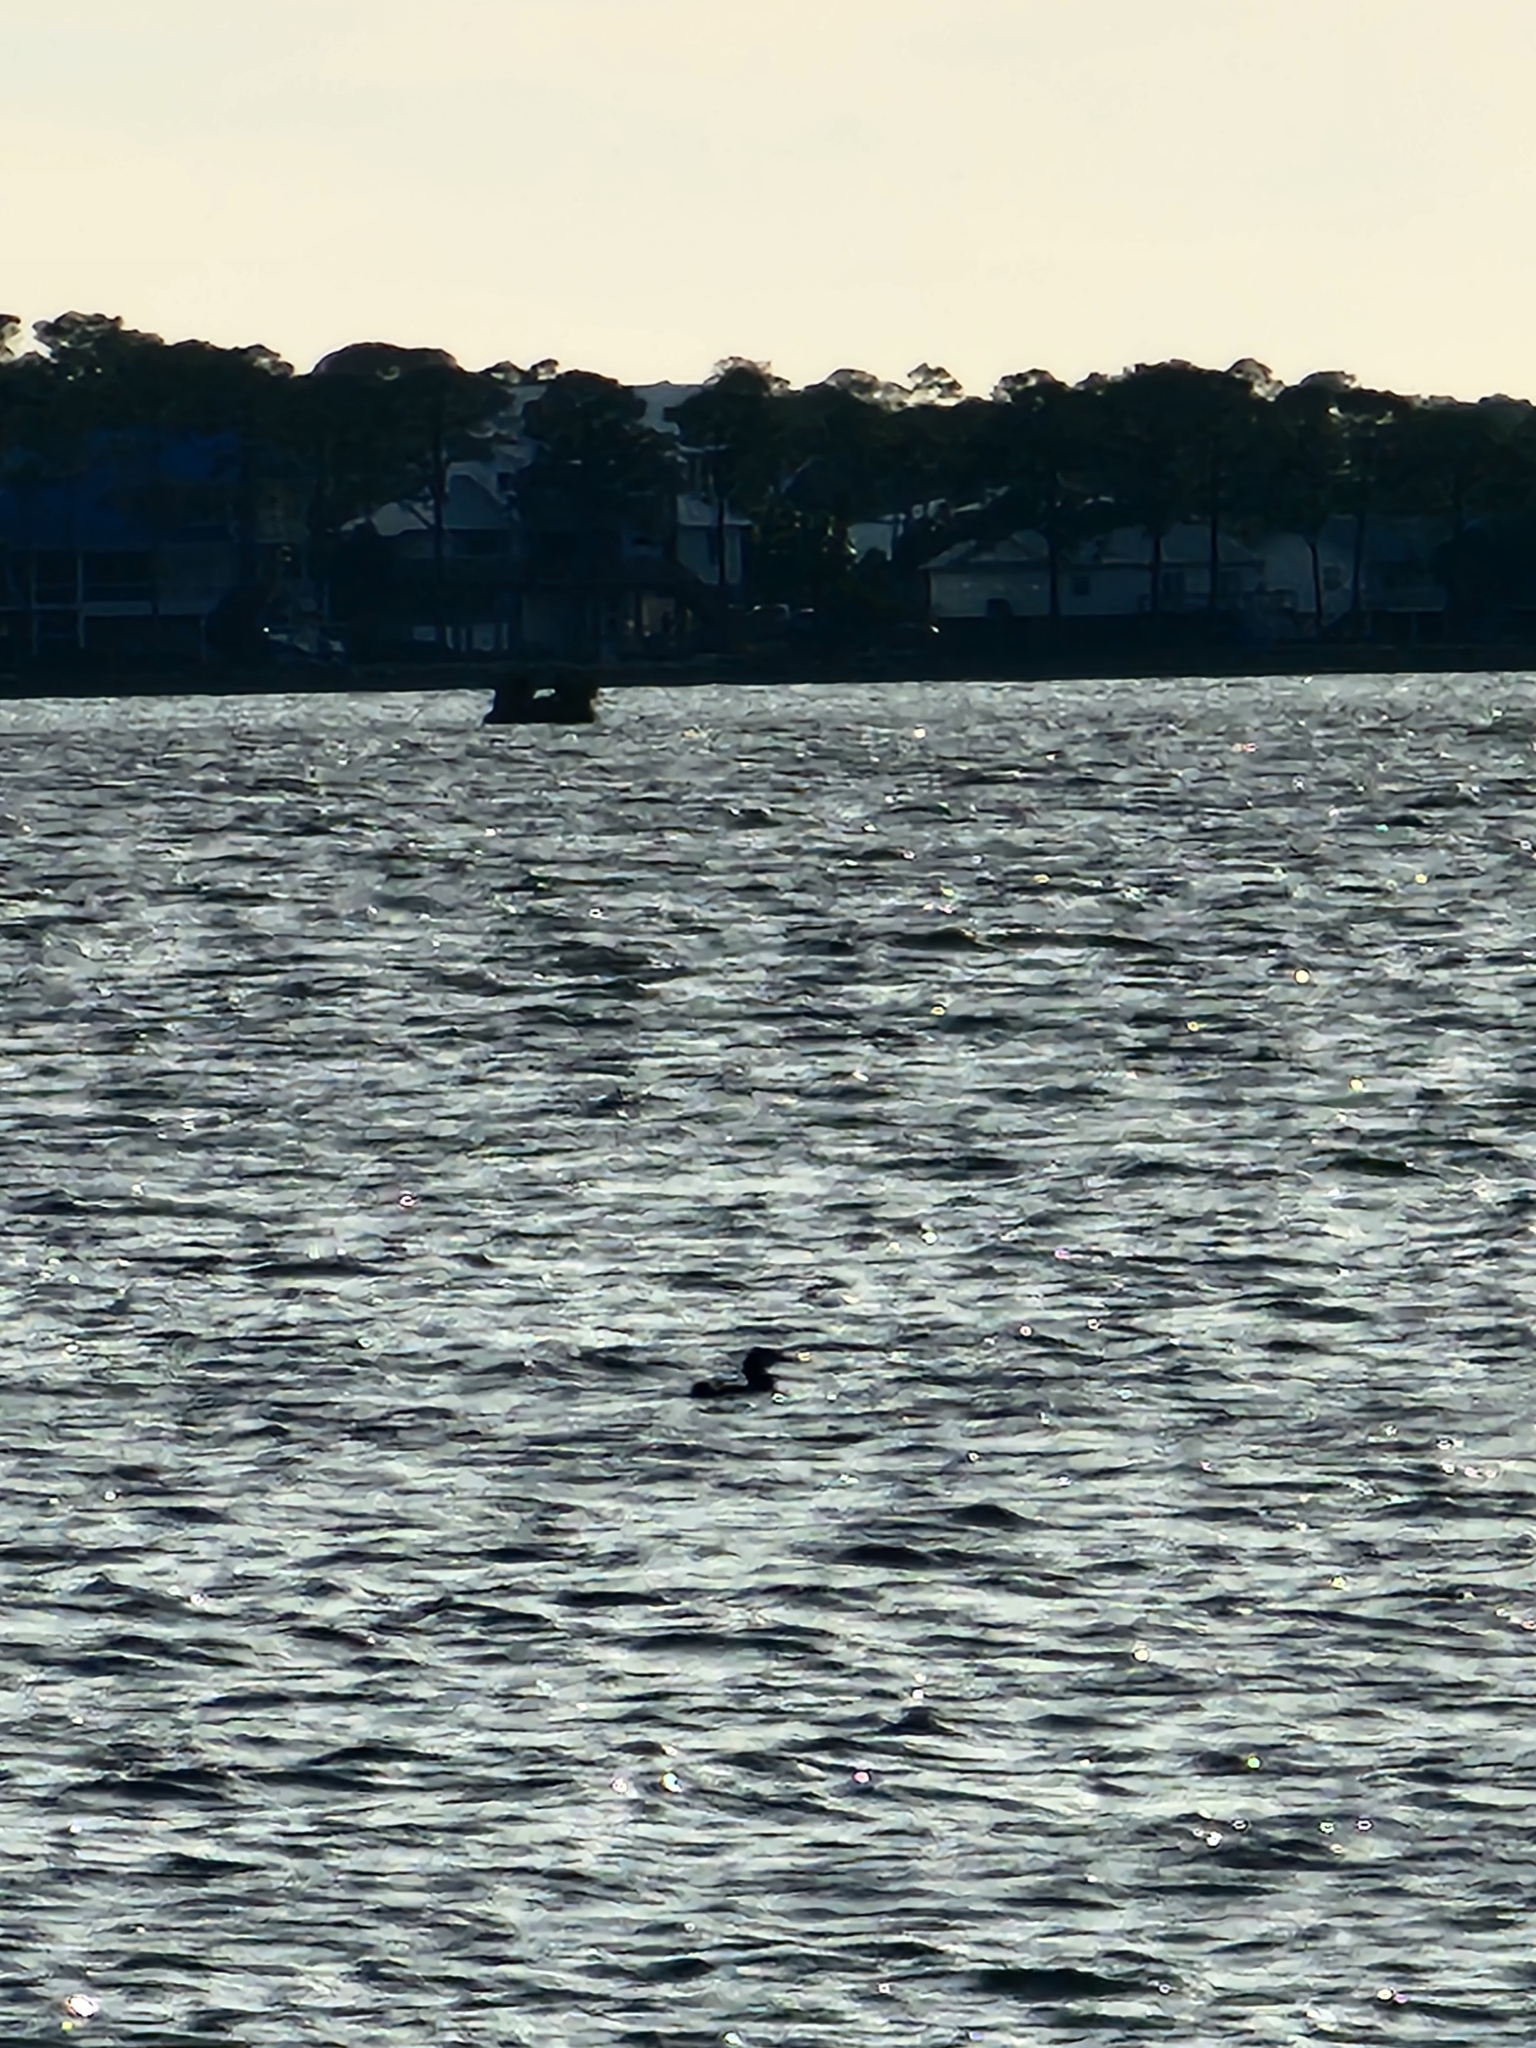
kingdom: Animalia
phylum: Chordata
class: Aves
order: Gaviiformes
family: Gaviidae
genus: Gavia
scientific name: Gavia immer
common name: Common loon
